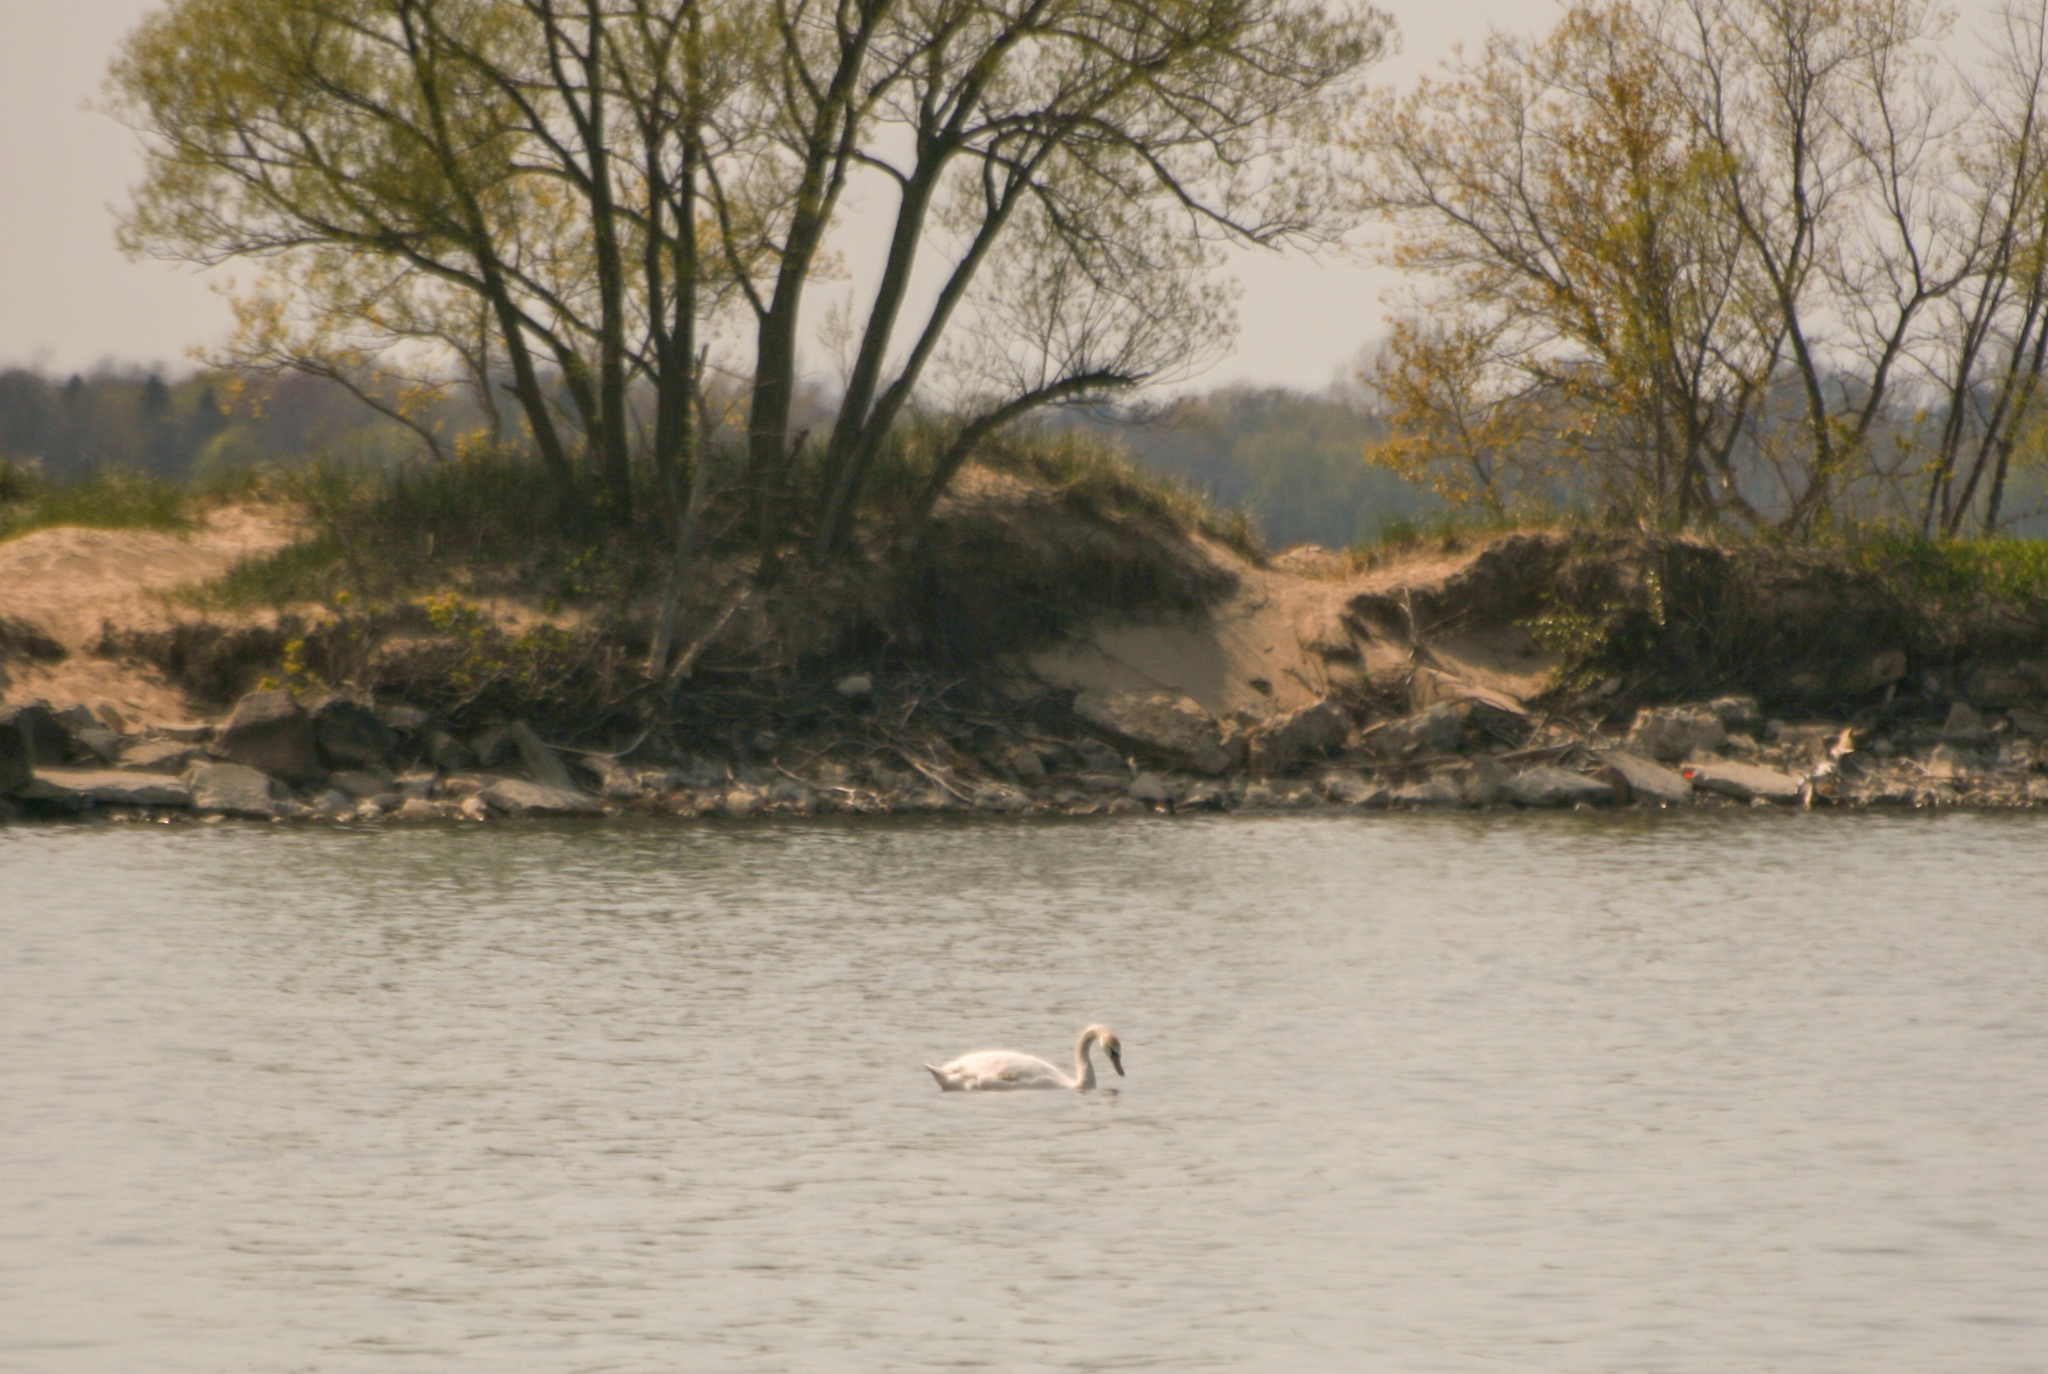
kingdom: Animalia
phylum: Chordata
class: Aves
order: Anseriformes
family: Anatidae
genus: Cygnus
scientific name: Cygnus olor
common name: Mute swan
